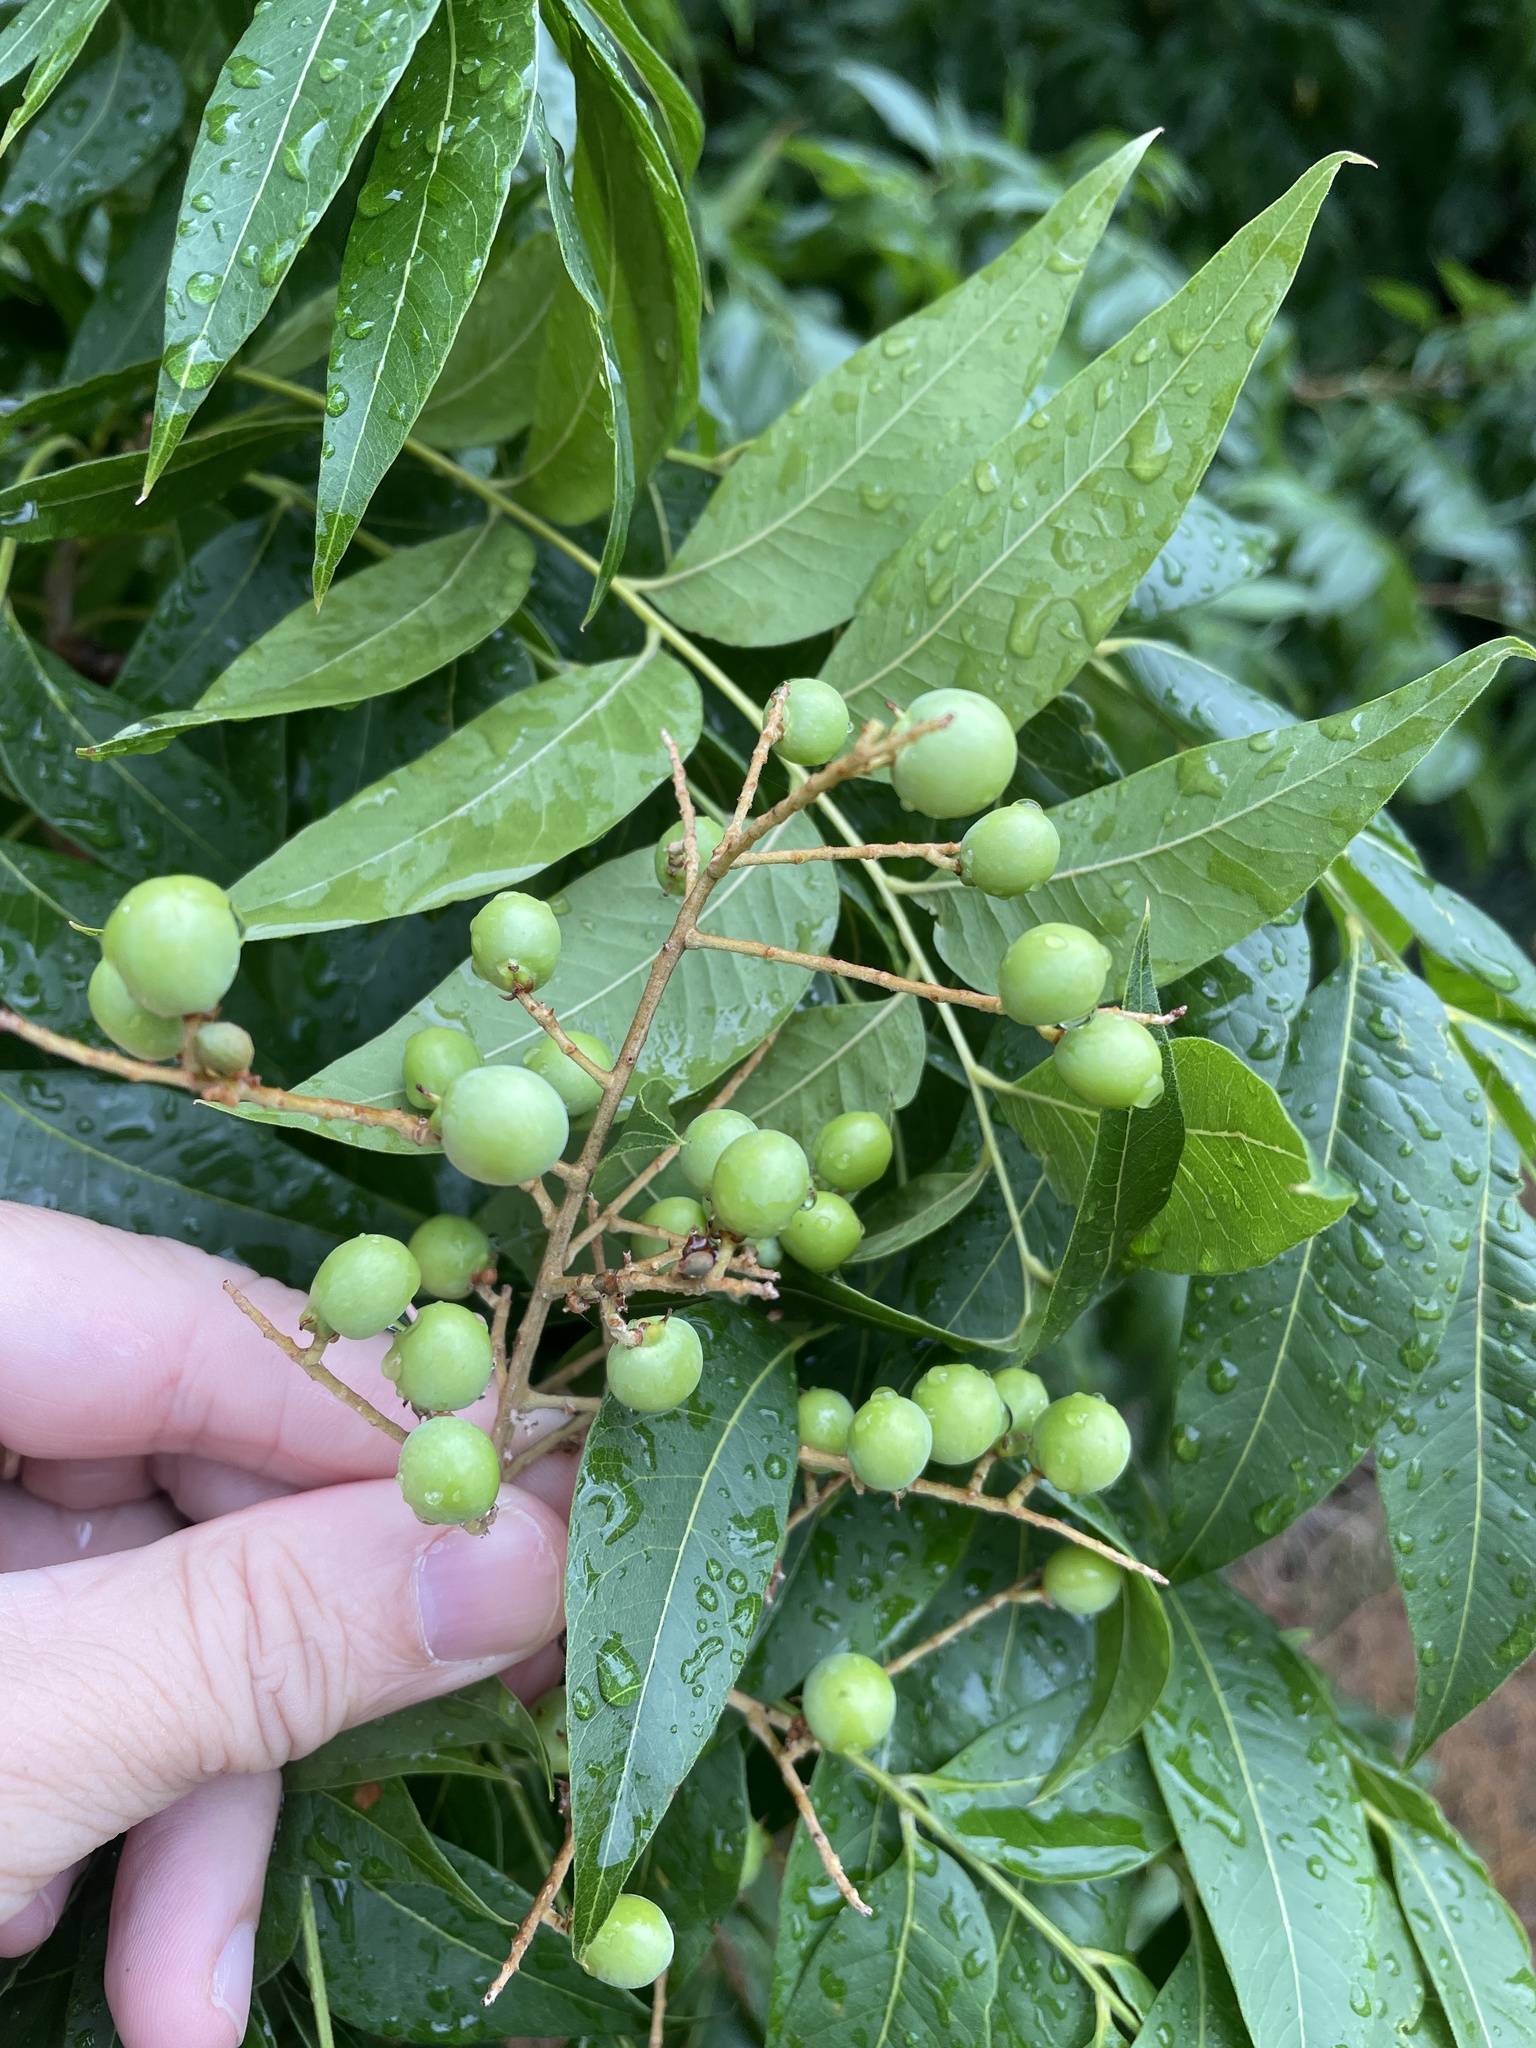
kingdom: Plantae
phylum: Tracheophyta
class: Magnoliopsida
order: Sapindales
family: Sapindaceae
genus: Sapindus
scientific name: Sapindus drummondii
